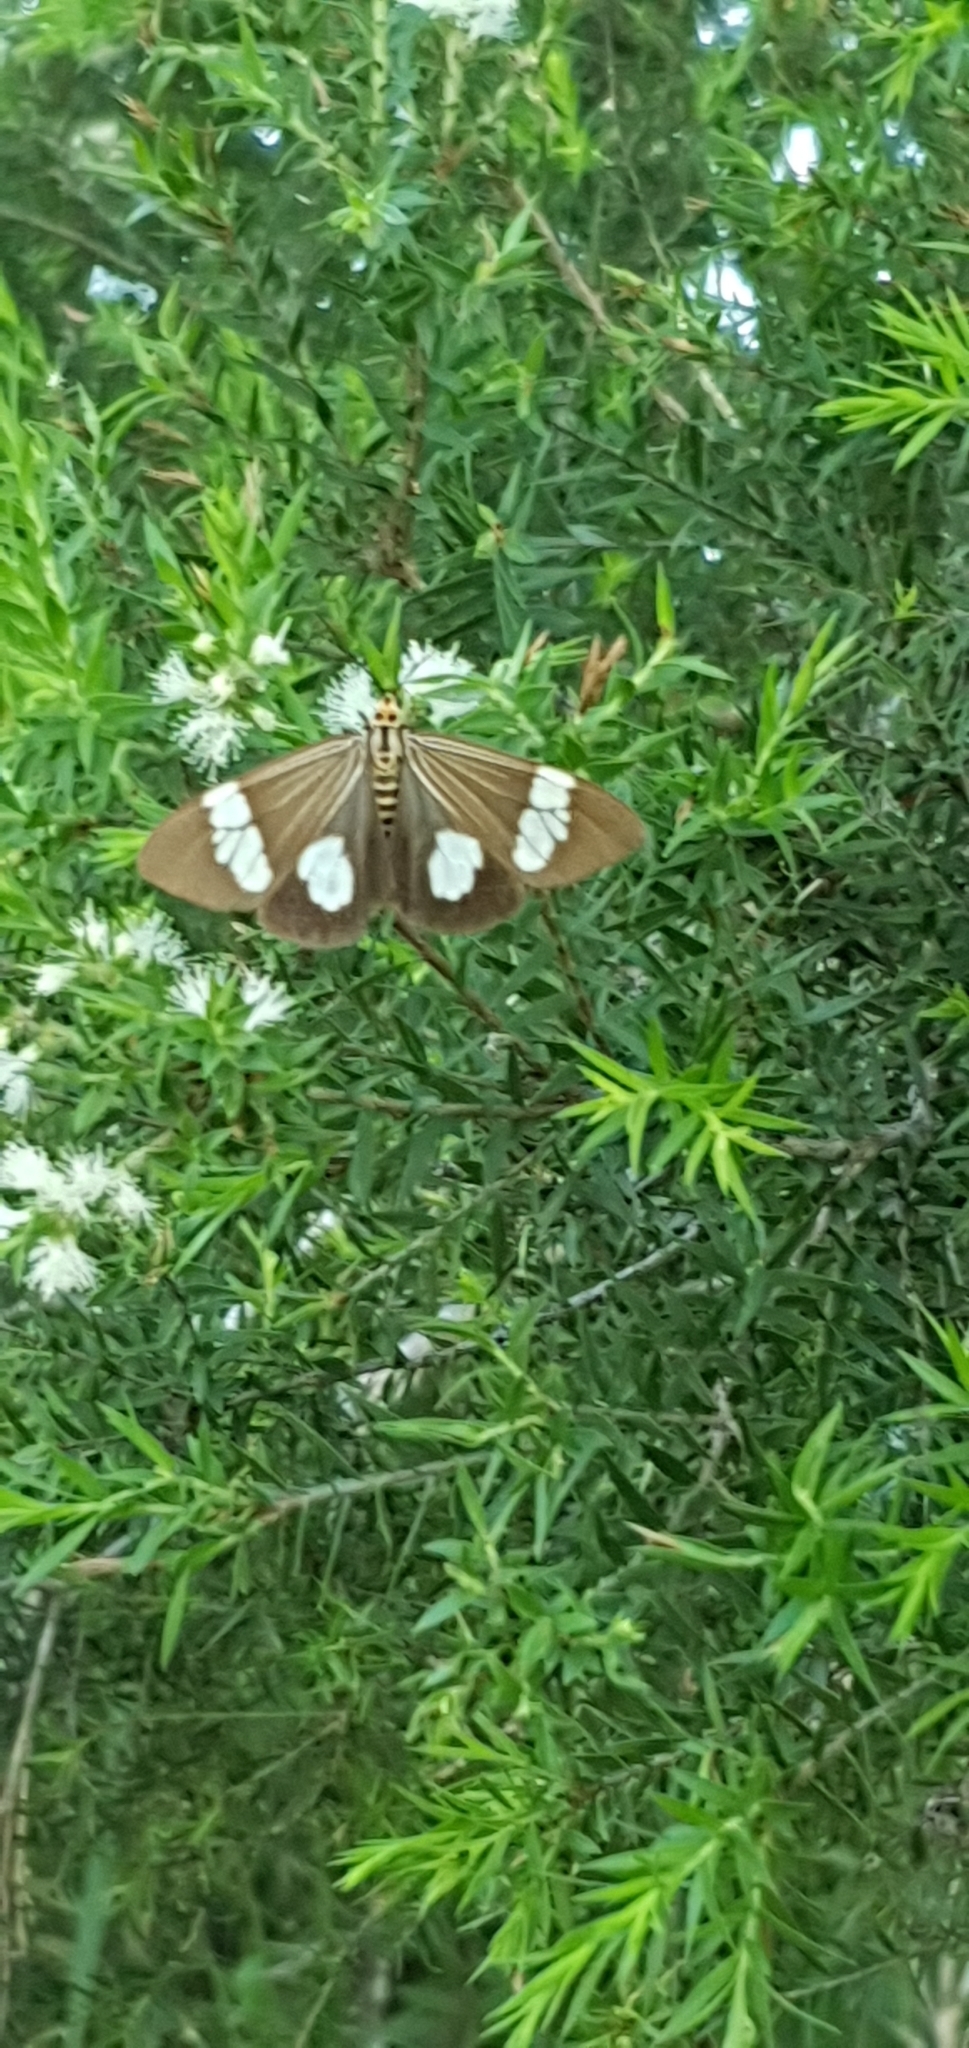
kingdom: Animalia
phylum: Arthropoda
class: Insecta
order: Lepidoptera
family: Erebidae
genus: Nyctemera
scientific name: Nyctemera baulus
